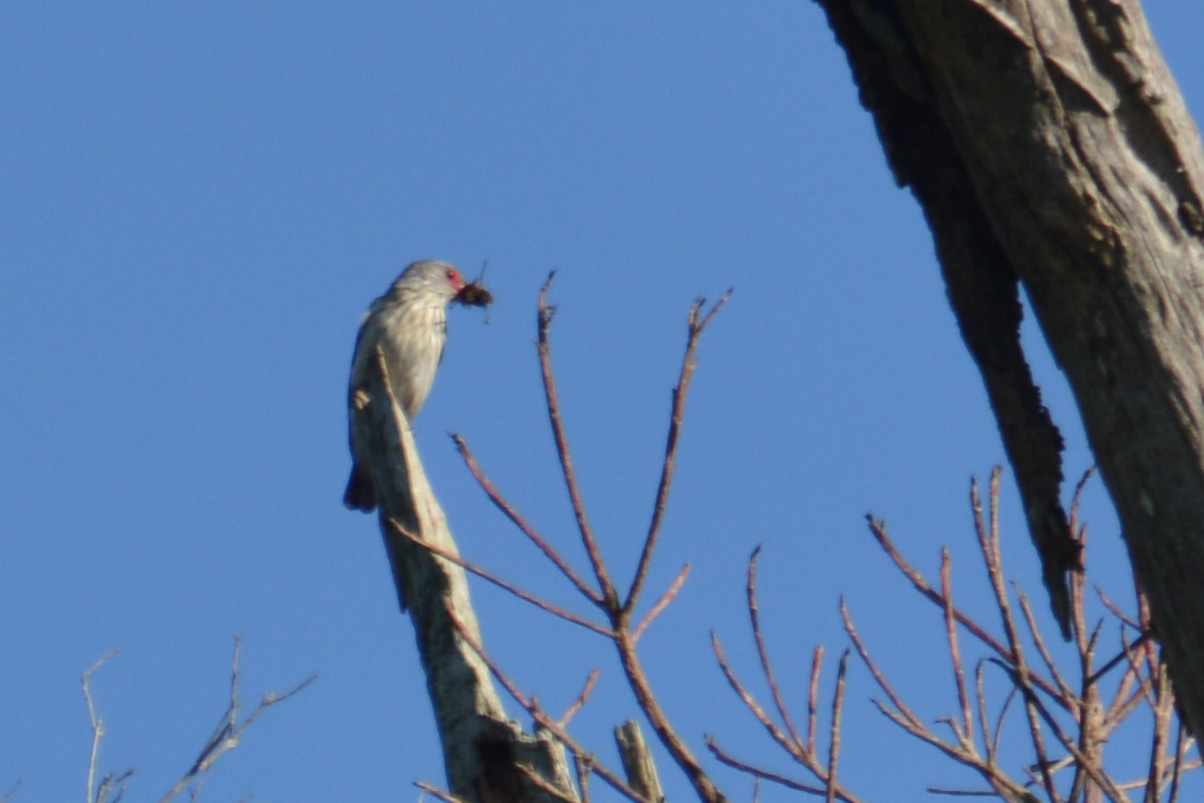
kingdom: Animalia
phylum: Chordata
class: Aves
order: Passeriformes
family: Cotingidae
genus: Tityra
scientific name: Tityra cayana
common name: Black-tailed tityra
